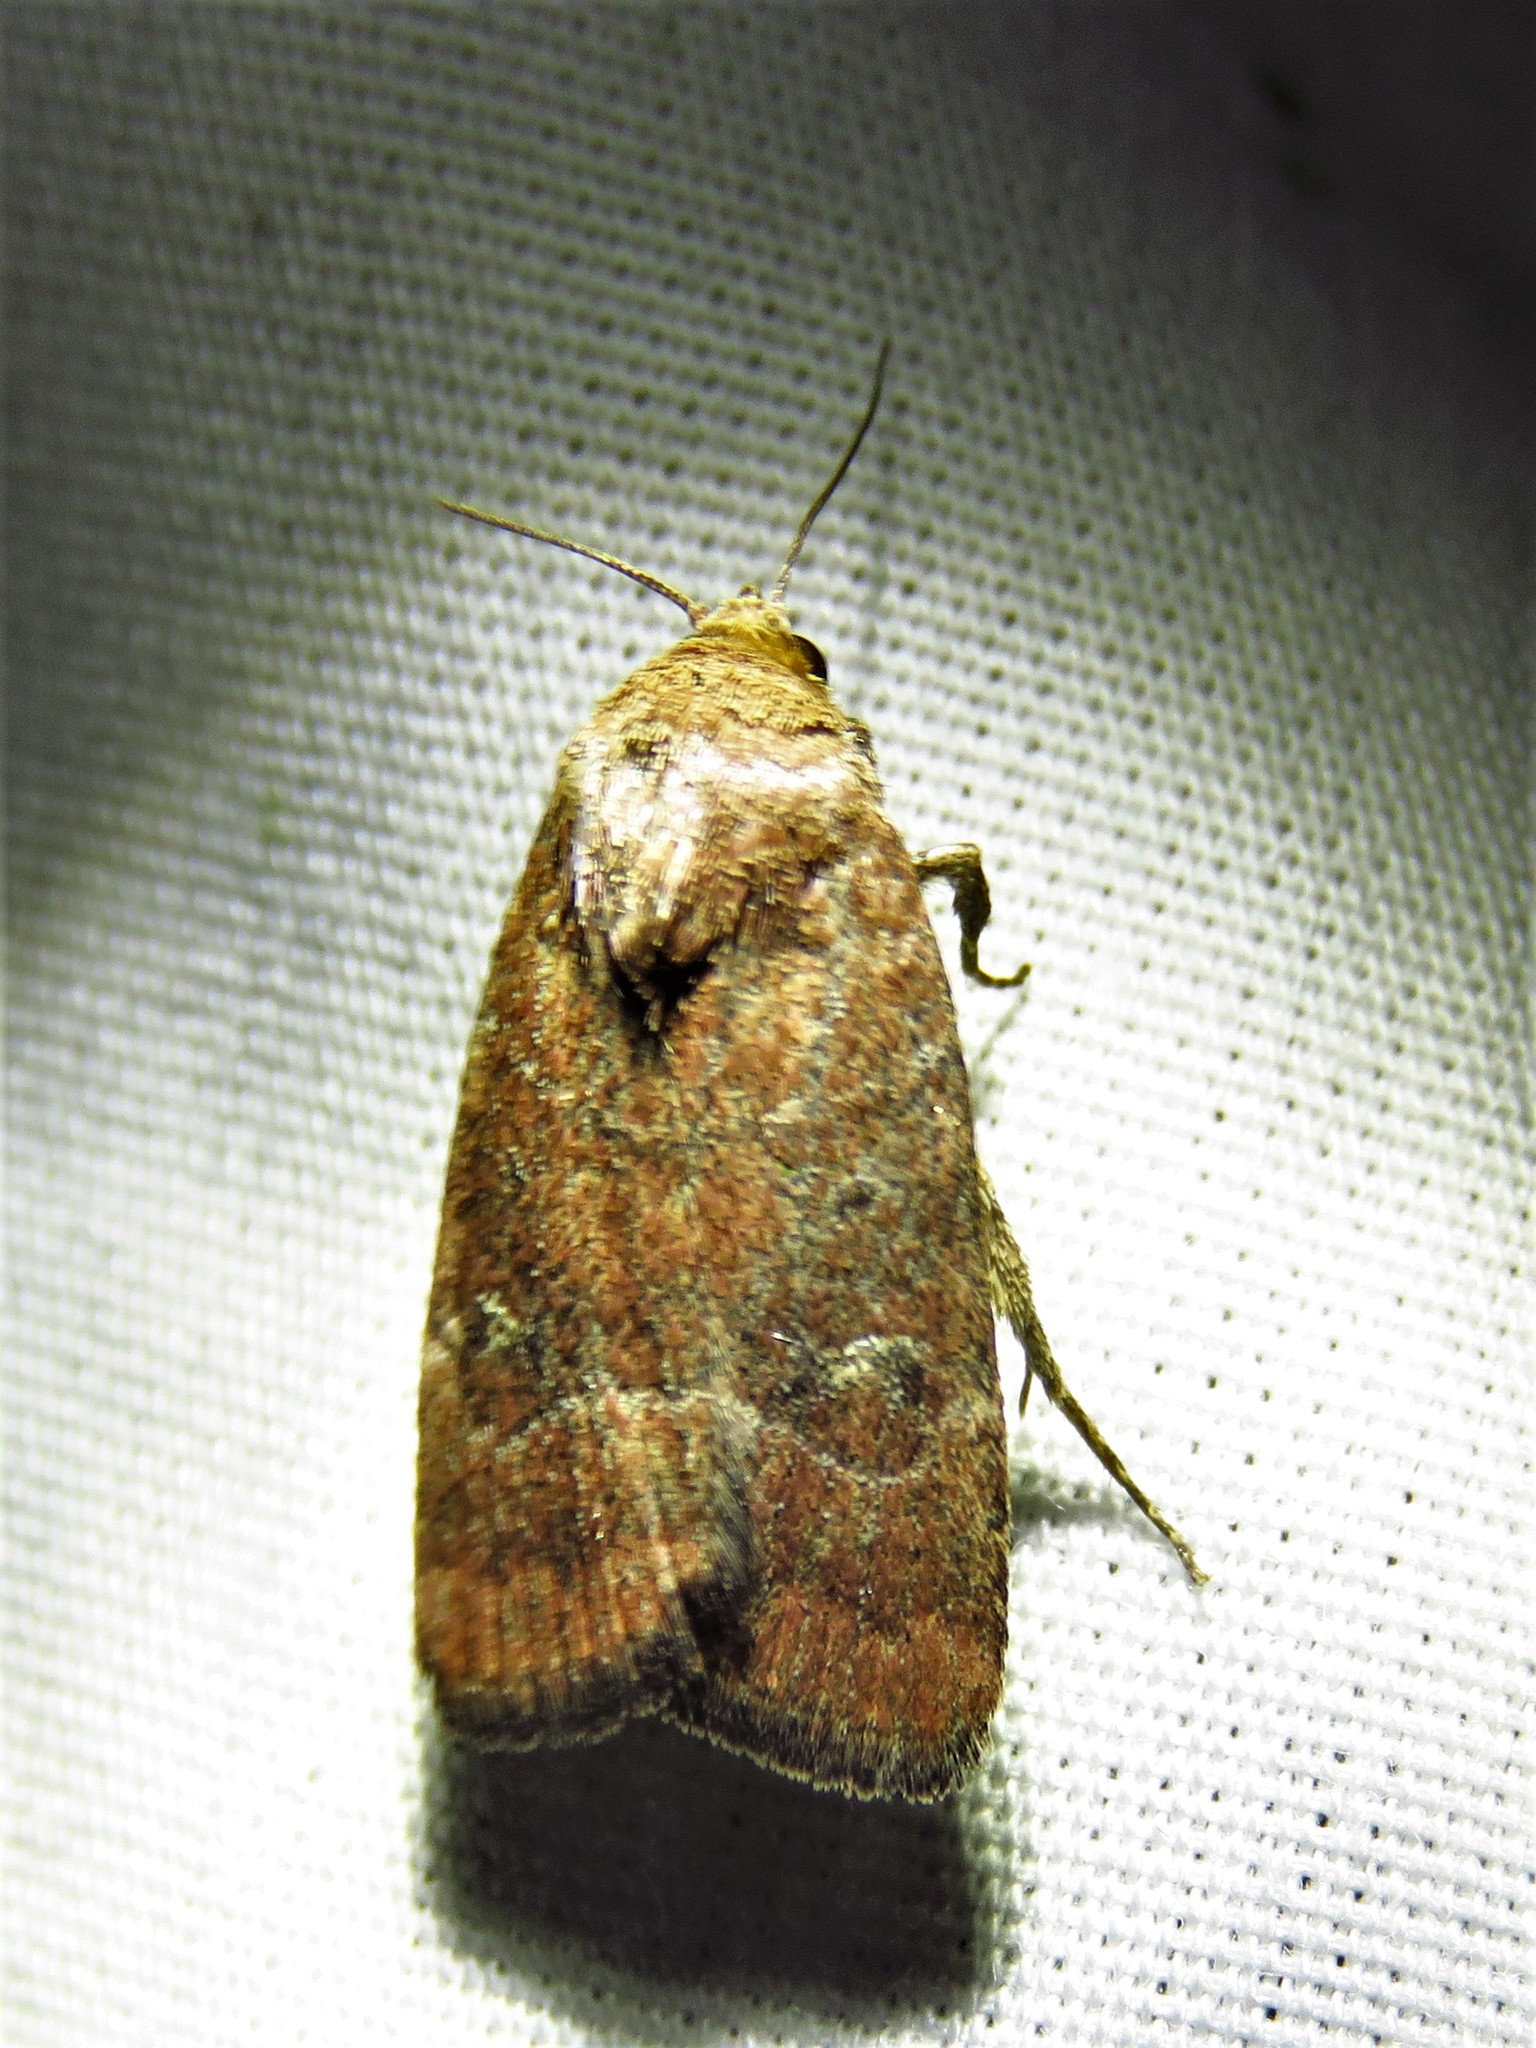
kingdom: Animalia
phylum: Arthropoda
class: Insecta
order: Lepidoptera
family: Noctuidae
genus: Elaphria
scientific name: Elaphria grata
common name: Grateful midget moth
